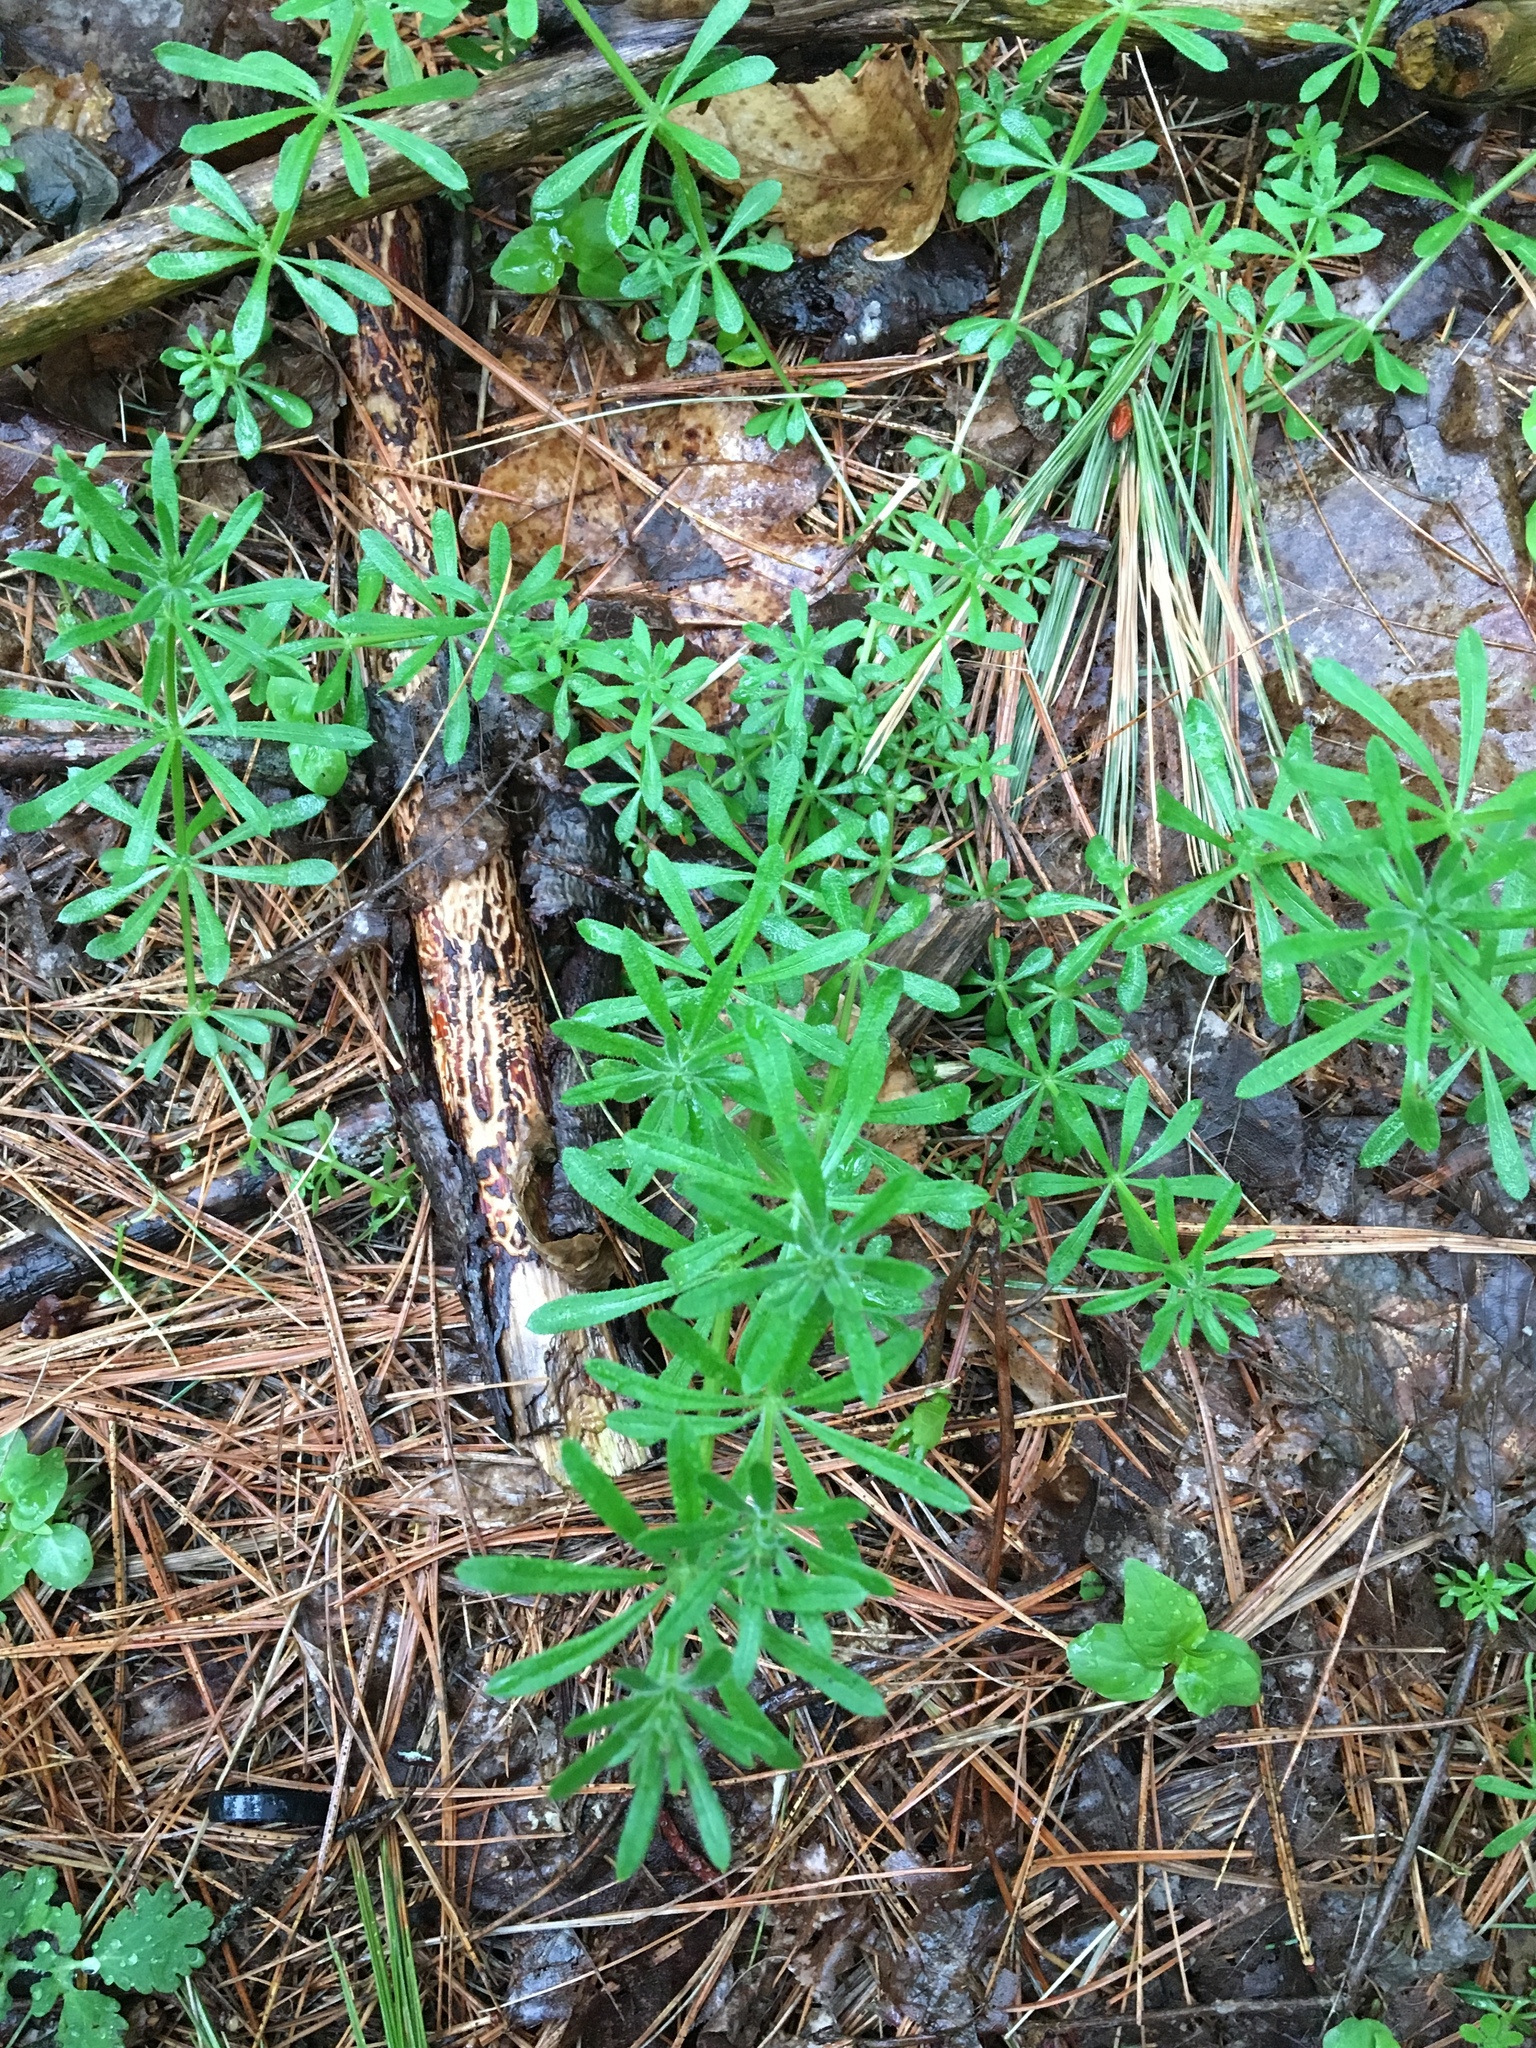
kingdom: Plantae
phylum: Tracheophyta
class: Magnoliopsida
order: Gentianales
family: Rubiaceae
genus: Galium
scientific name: Galium aparine
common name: Cleavers
